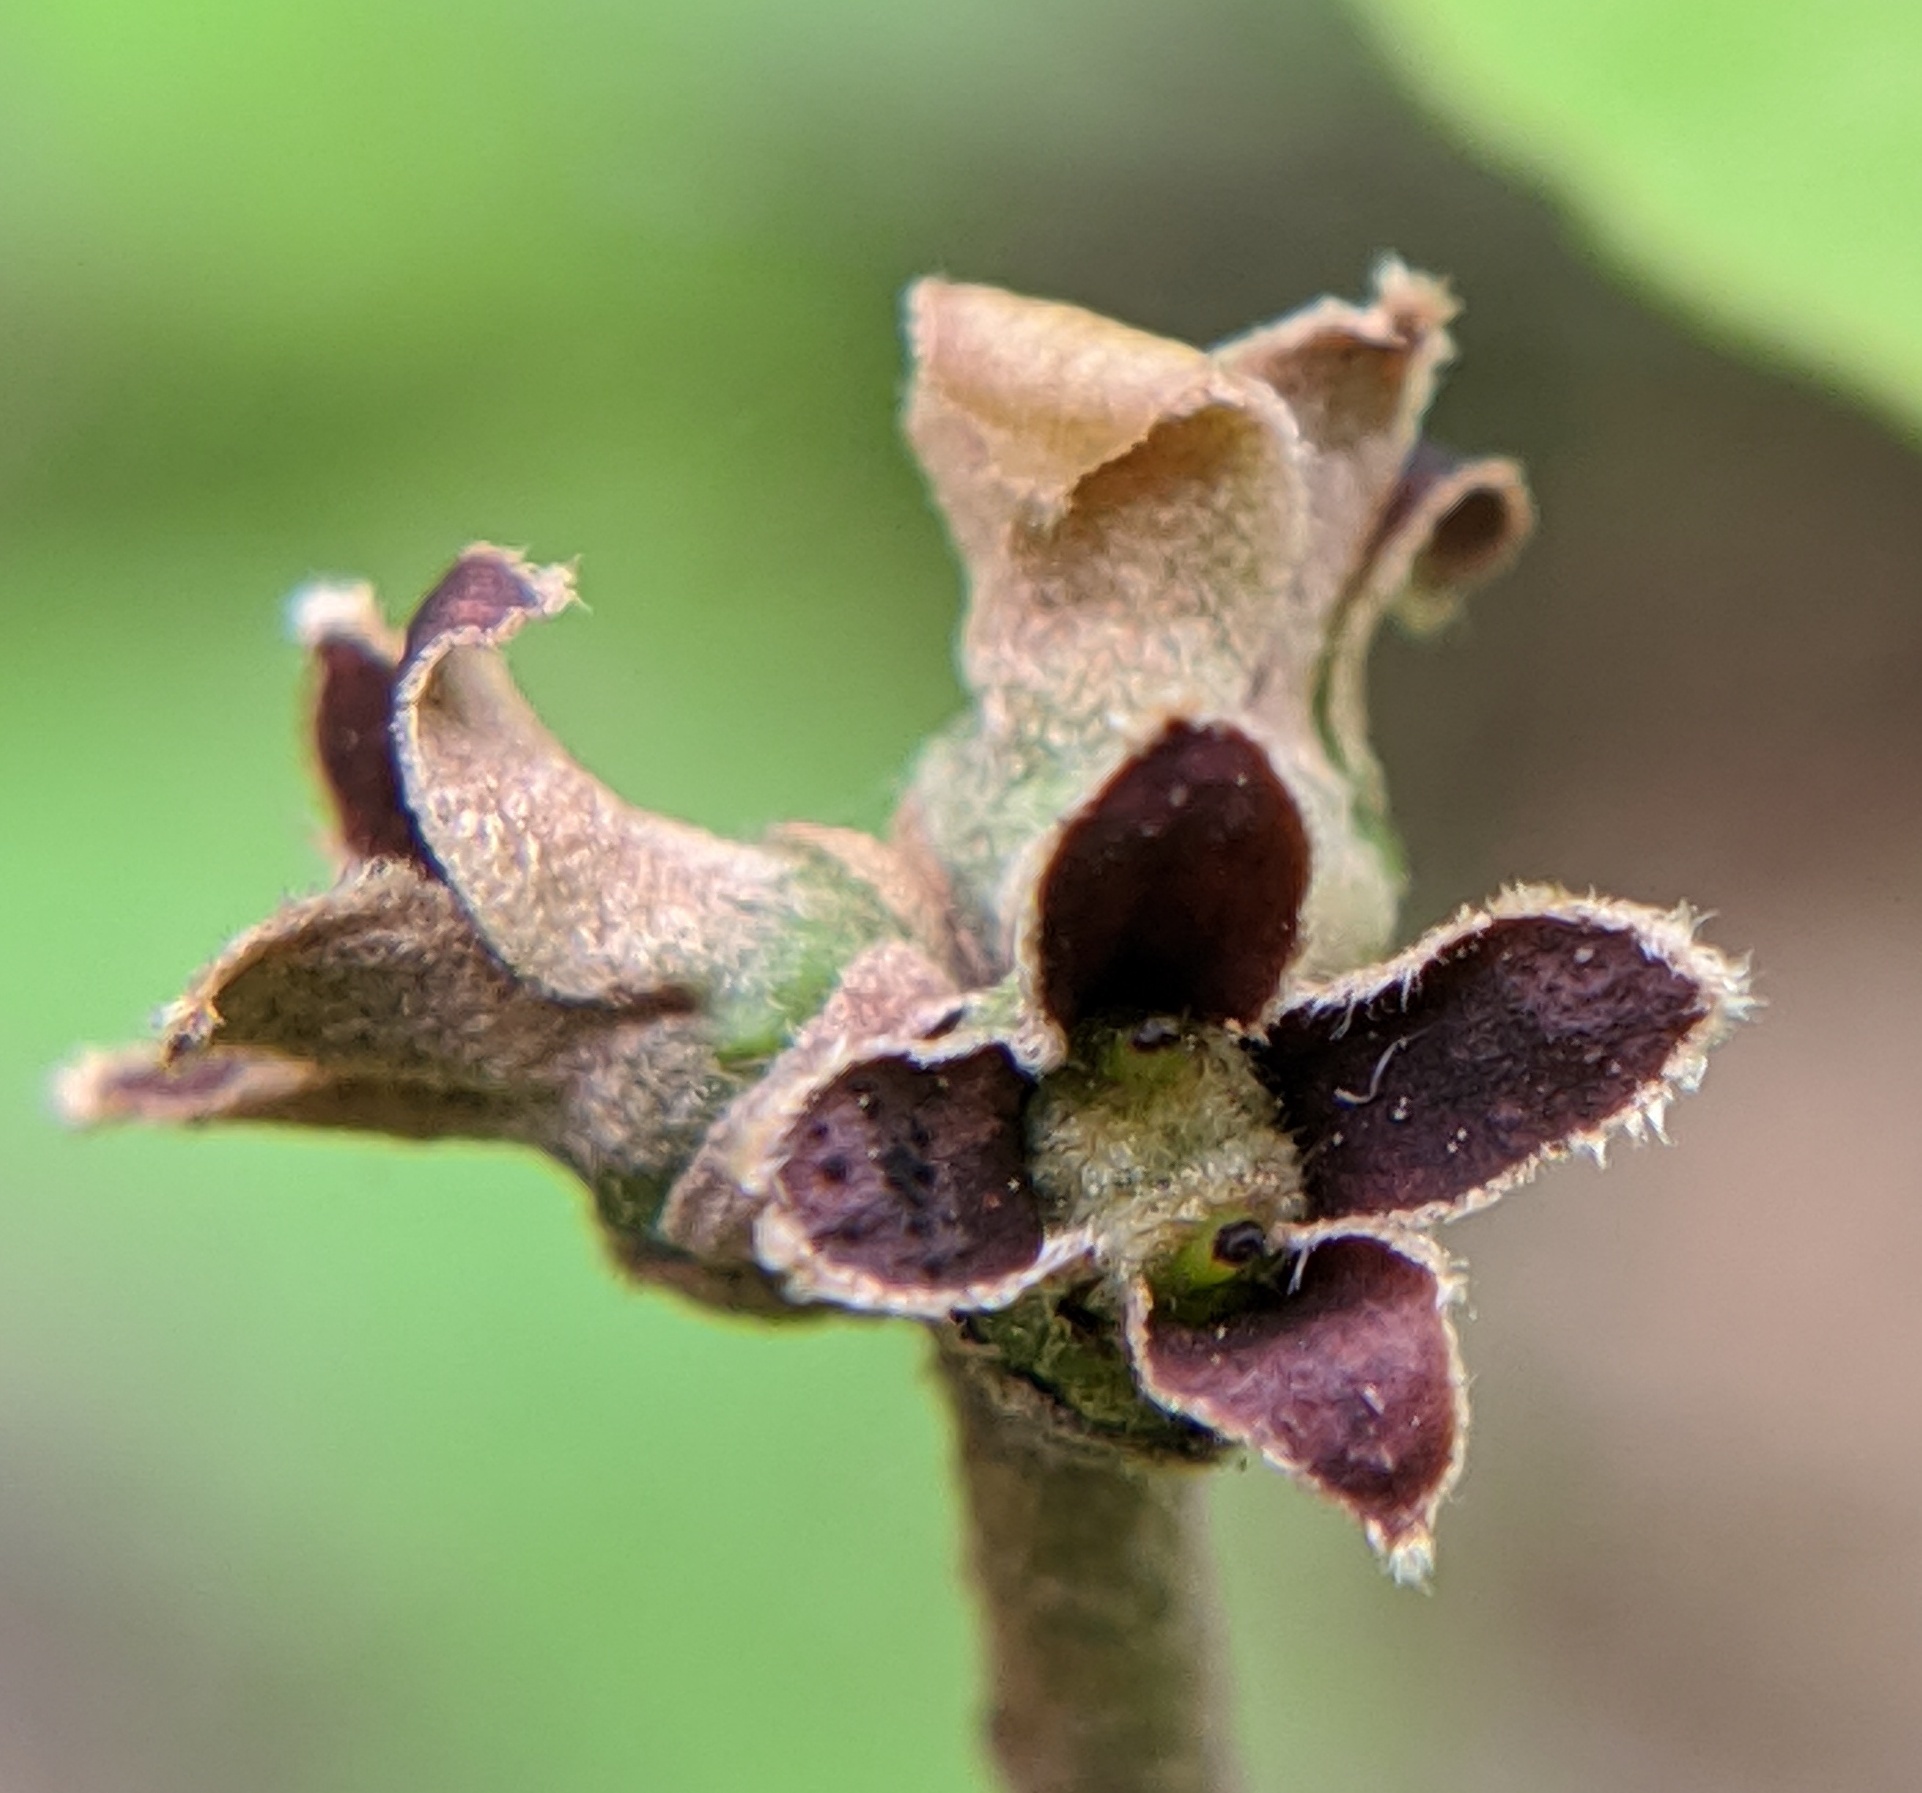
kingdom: Plantae
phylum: Tracheophyta
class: Magnoliopsida
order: Saxifragales
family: Hamamelidaceae
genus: Hamamelis
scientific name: Hamamelis virginiana
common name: Witch-hazel
